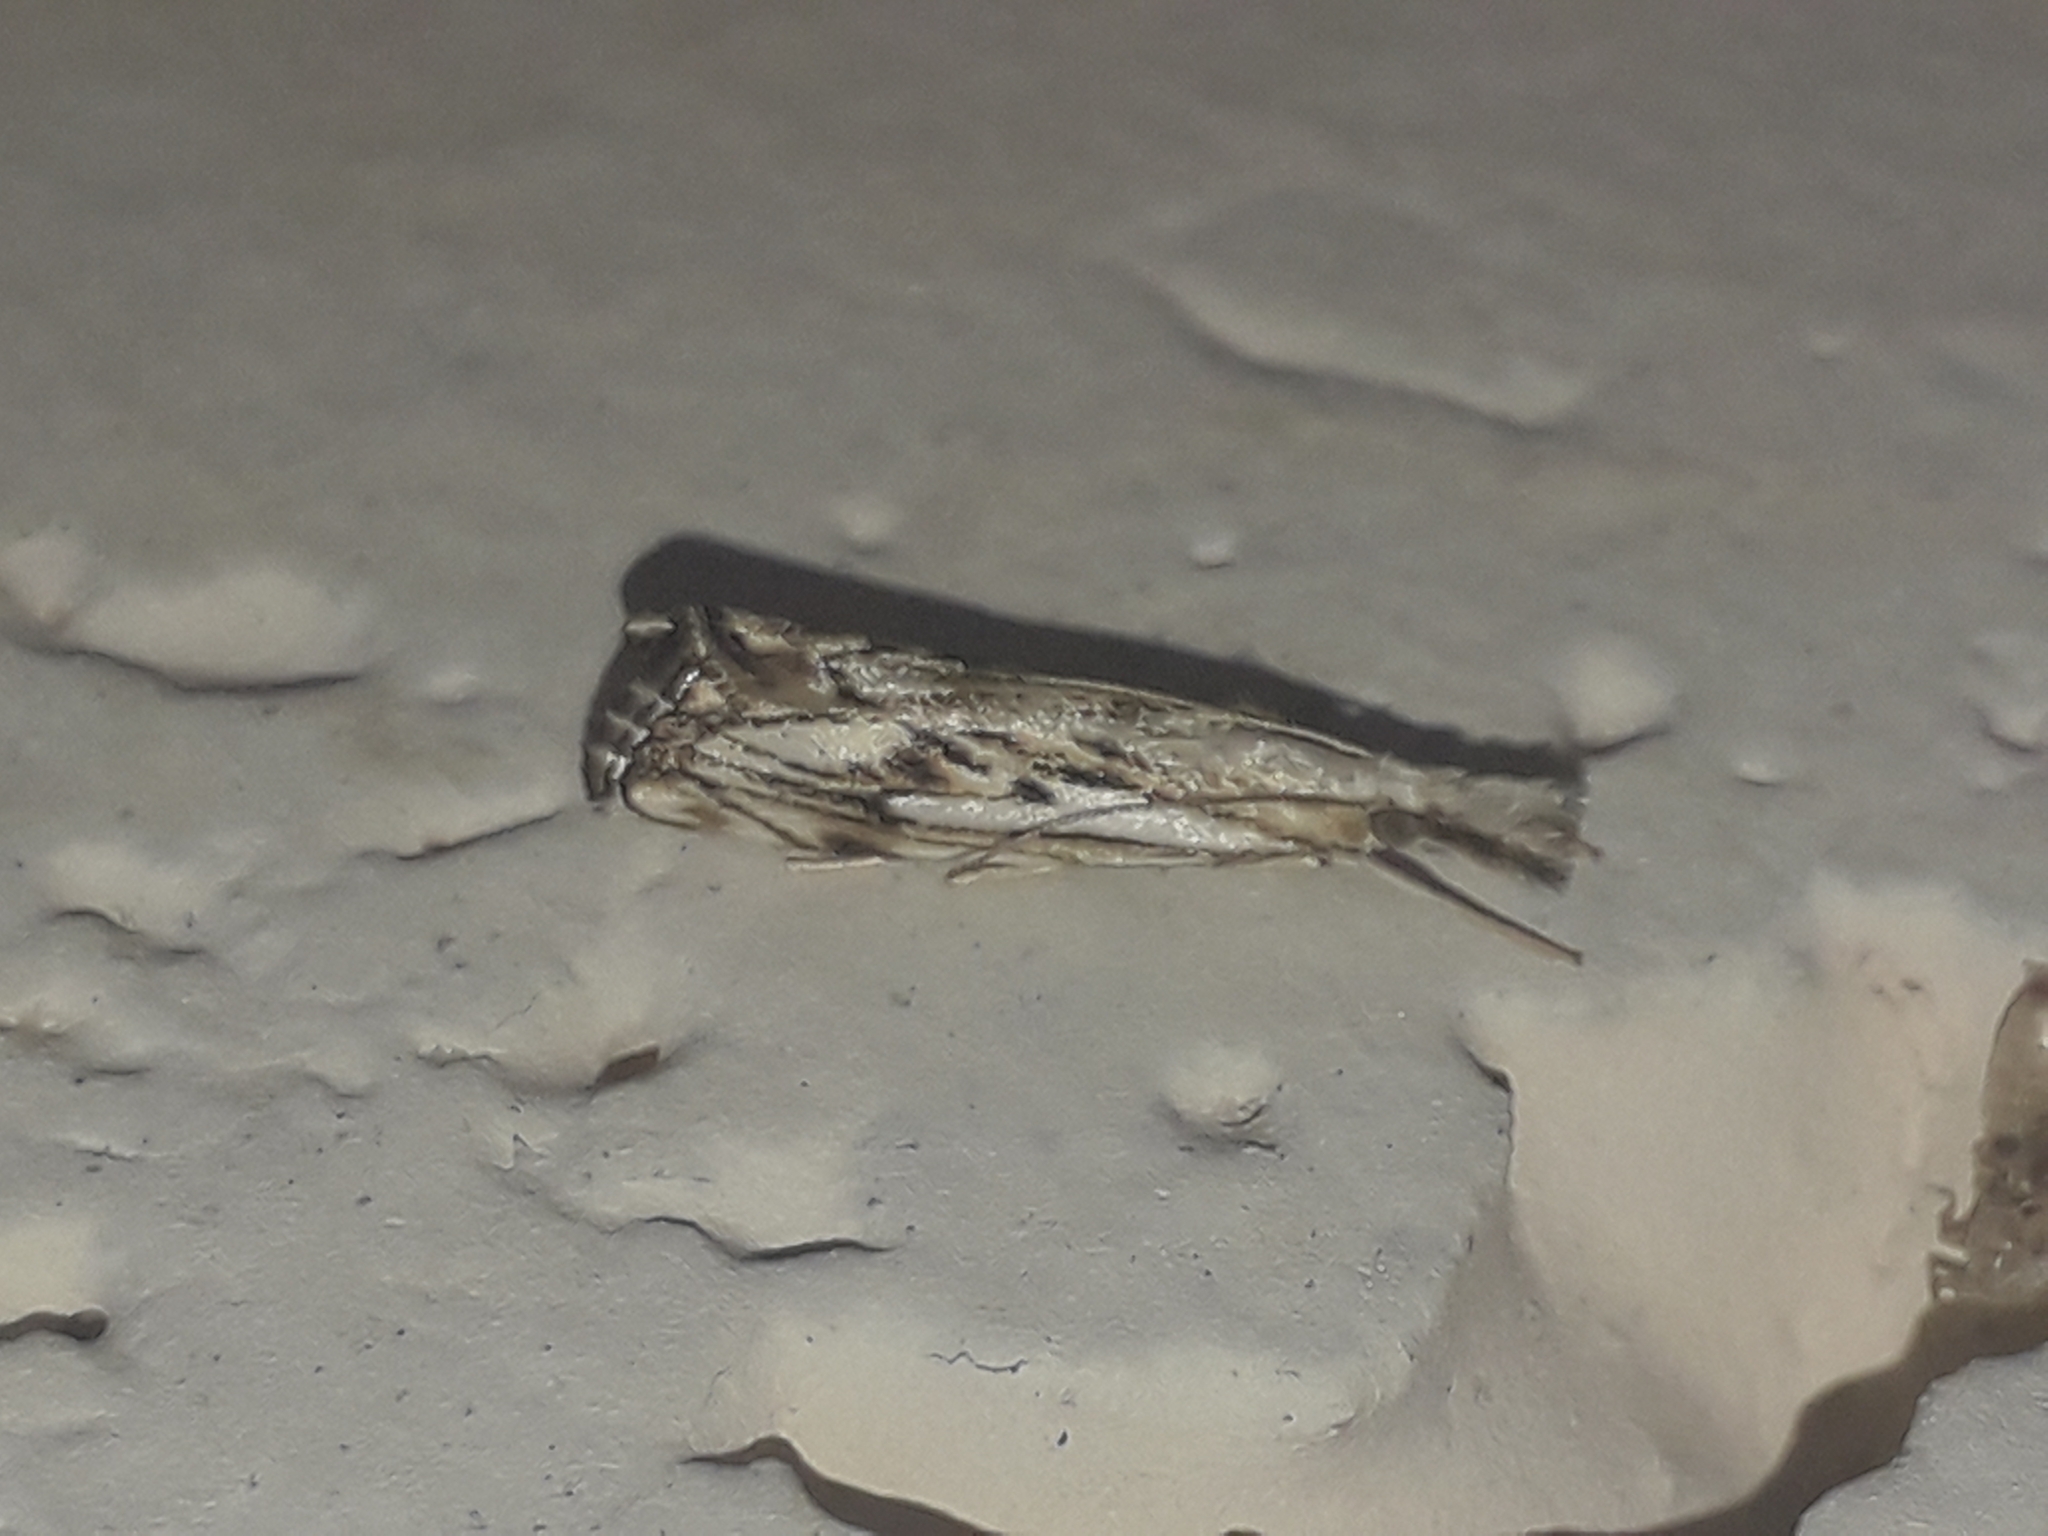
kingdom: Animalia
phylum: Arthropoda
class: Insecta
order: Lepidoptera
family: Crambidae
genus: Catoptria
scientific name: Catoptria falsella
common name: Chequered grass-veneer
